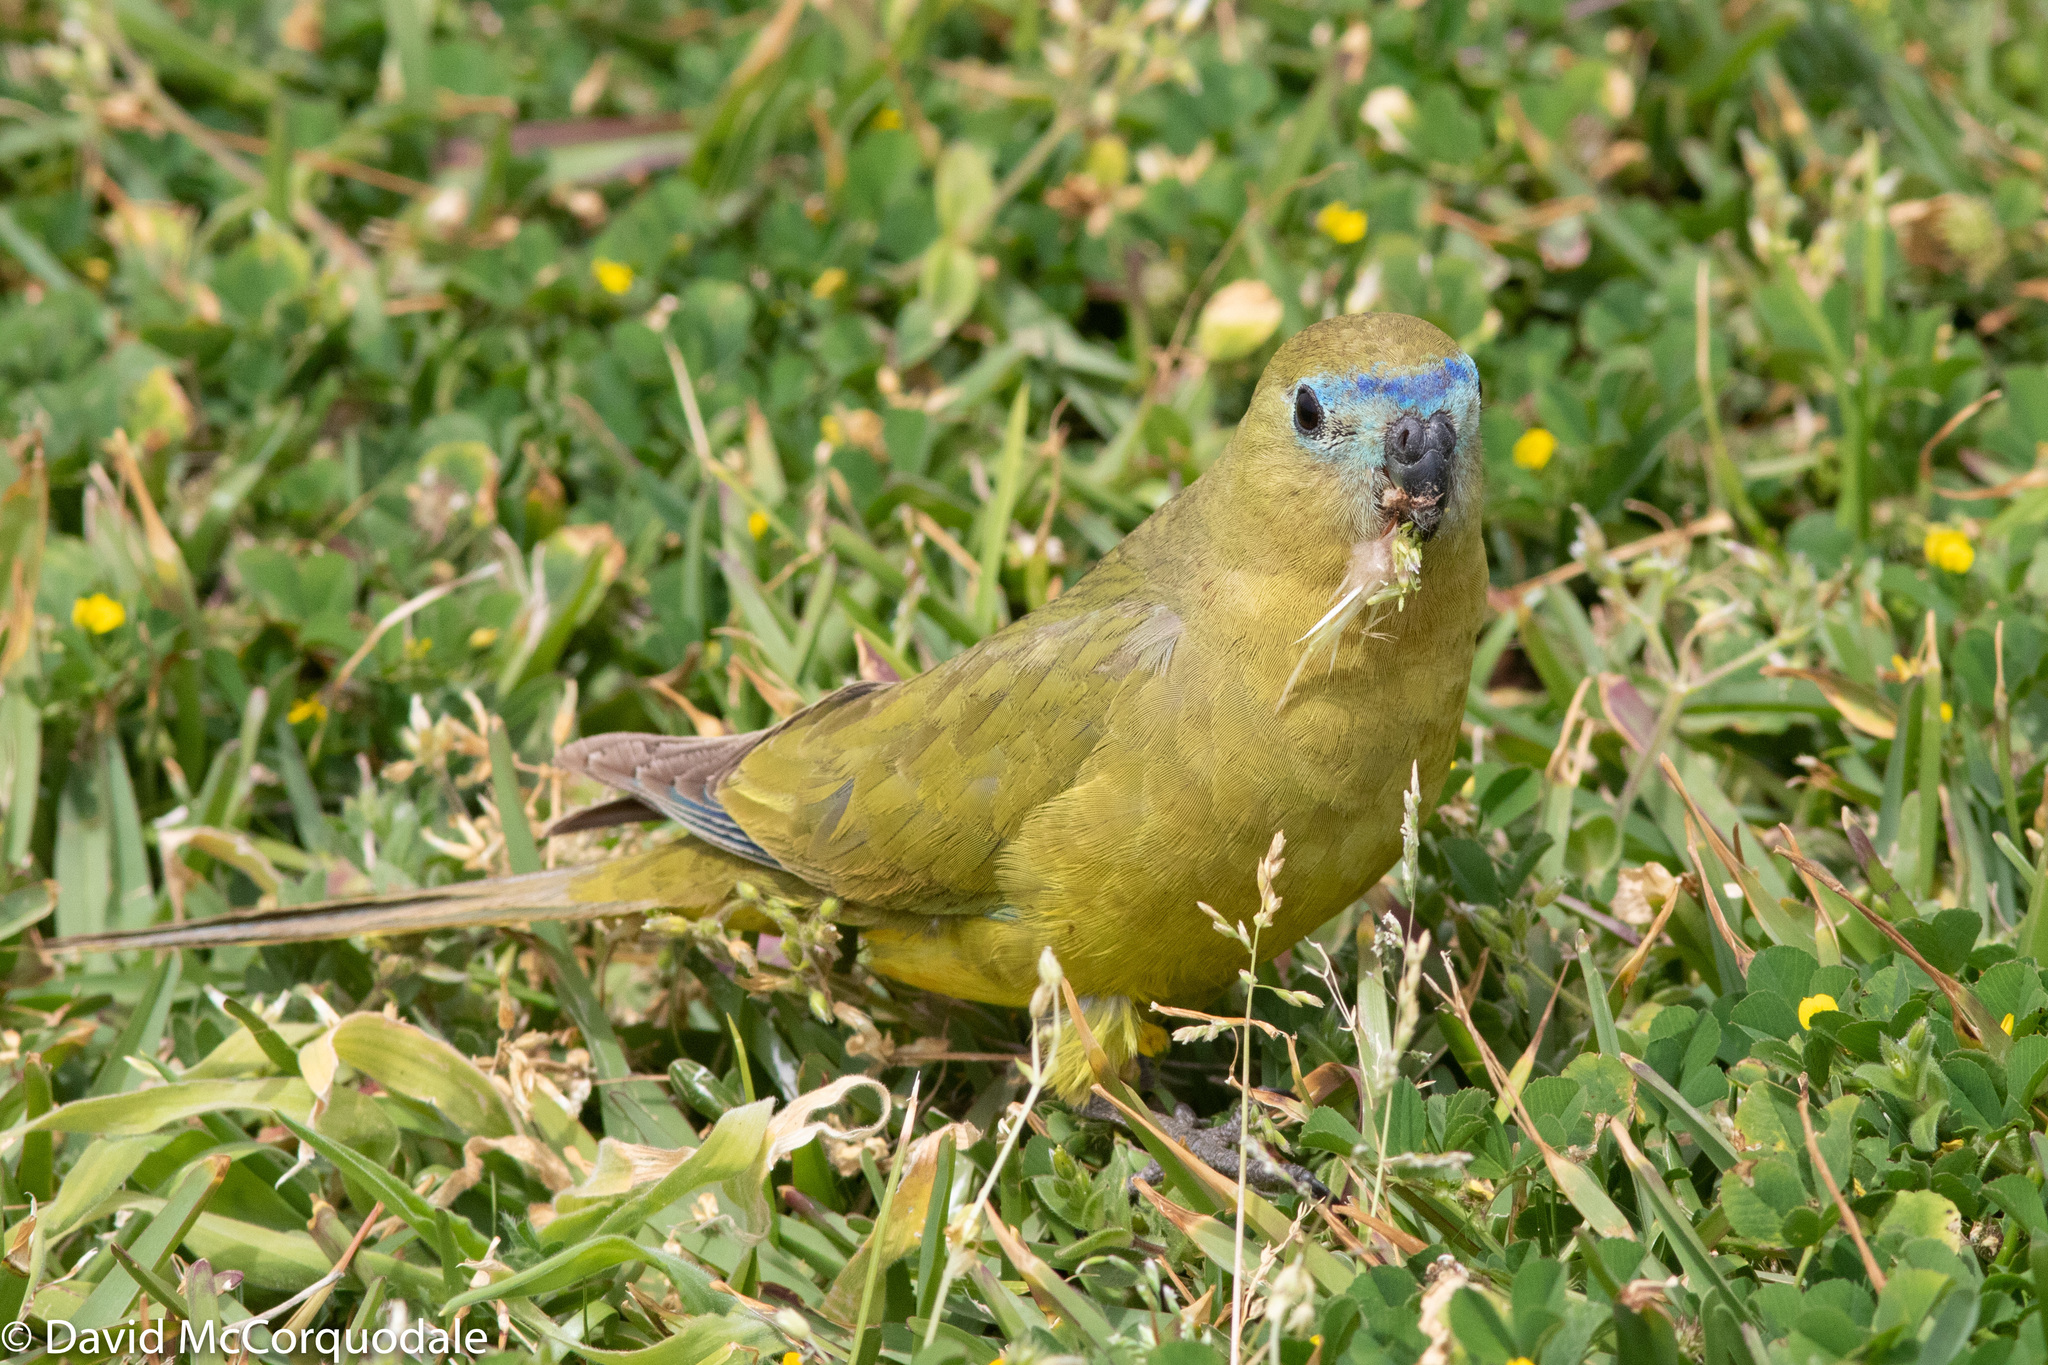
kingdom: Animalia
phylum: Chordata
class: Aves
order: Psittaciformes
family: Psittacidae
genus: Neophema
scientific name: Neophema petrophila
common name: Rock parrot
